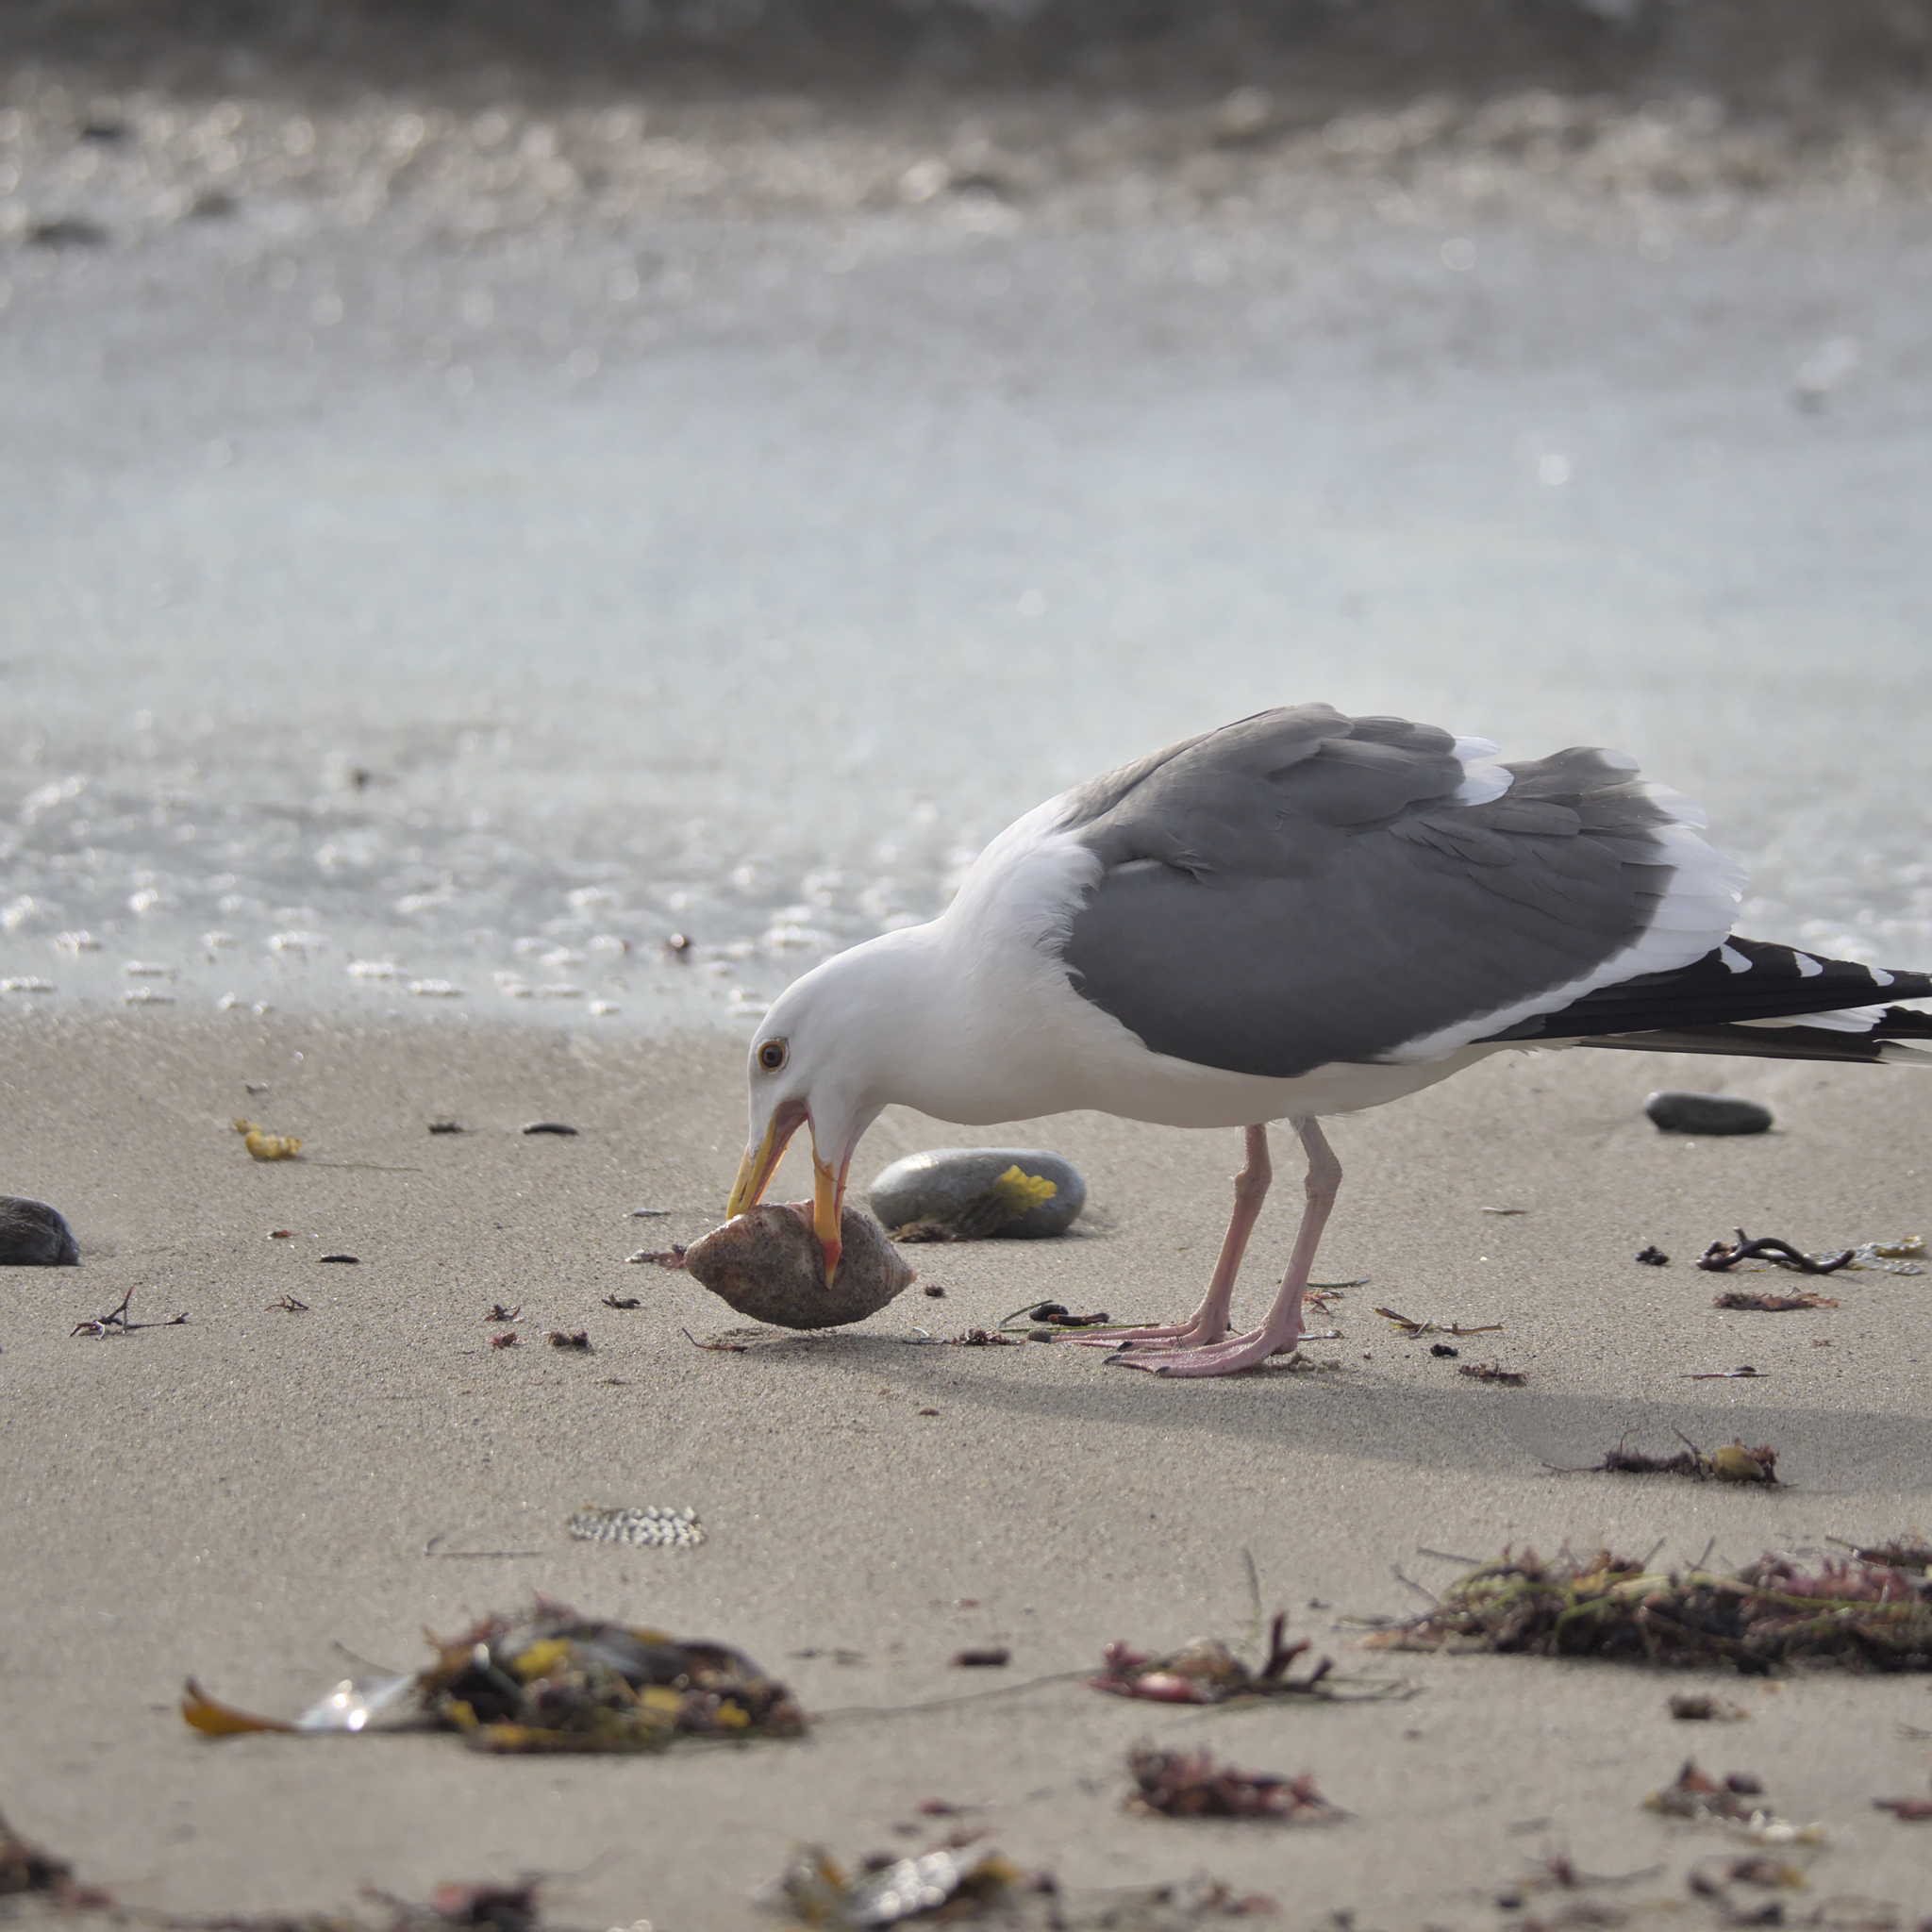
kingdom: Animalia
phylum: Chordata
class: Aves
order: Charadriiformes
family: Laridae
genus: Larus
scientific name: Larus occidentalis
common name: Western gull
